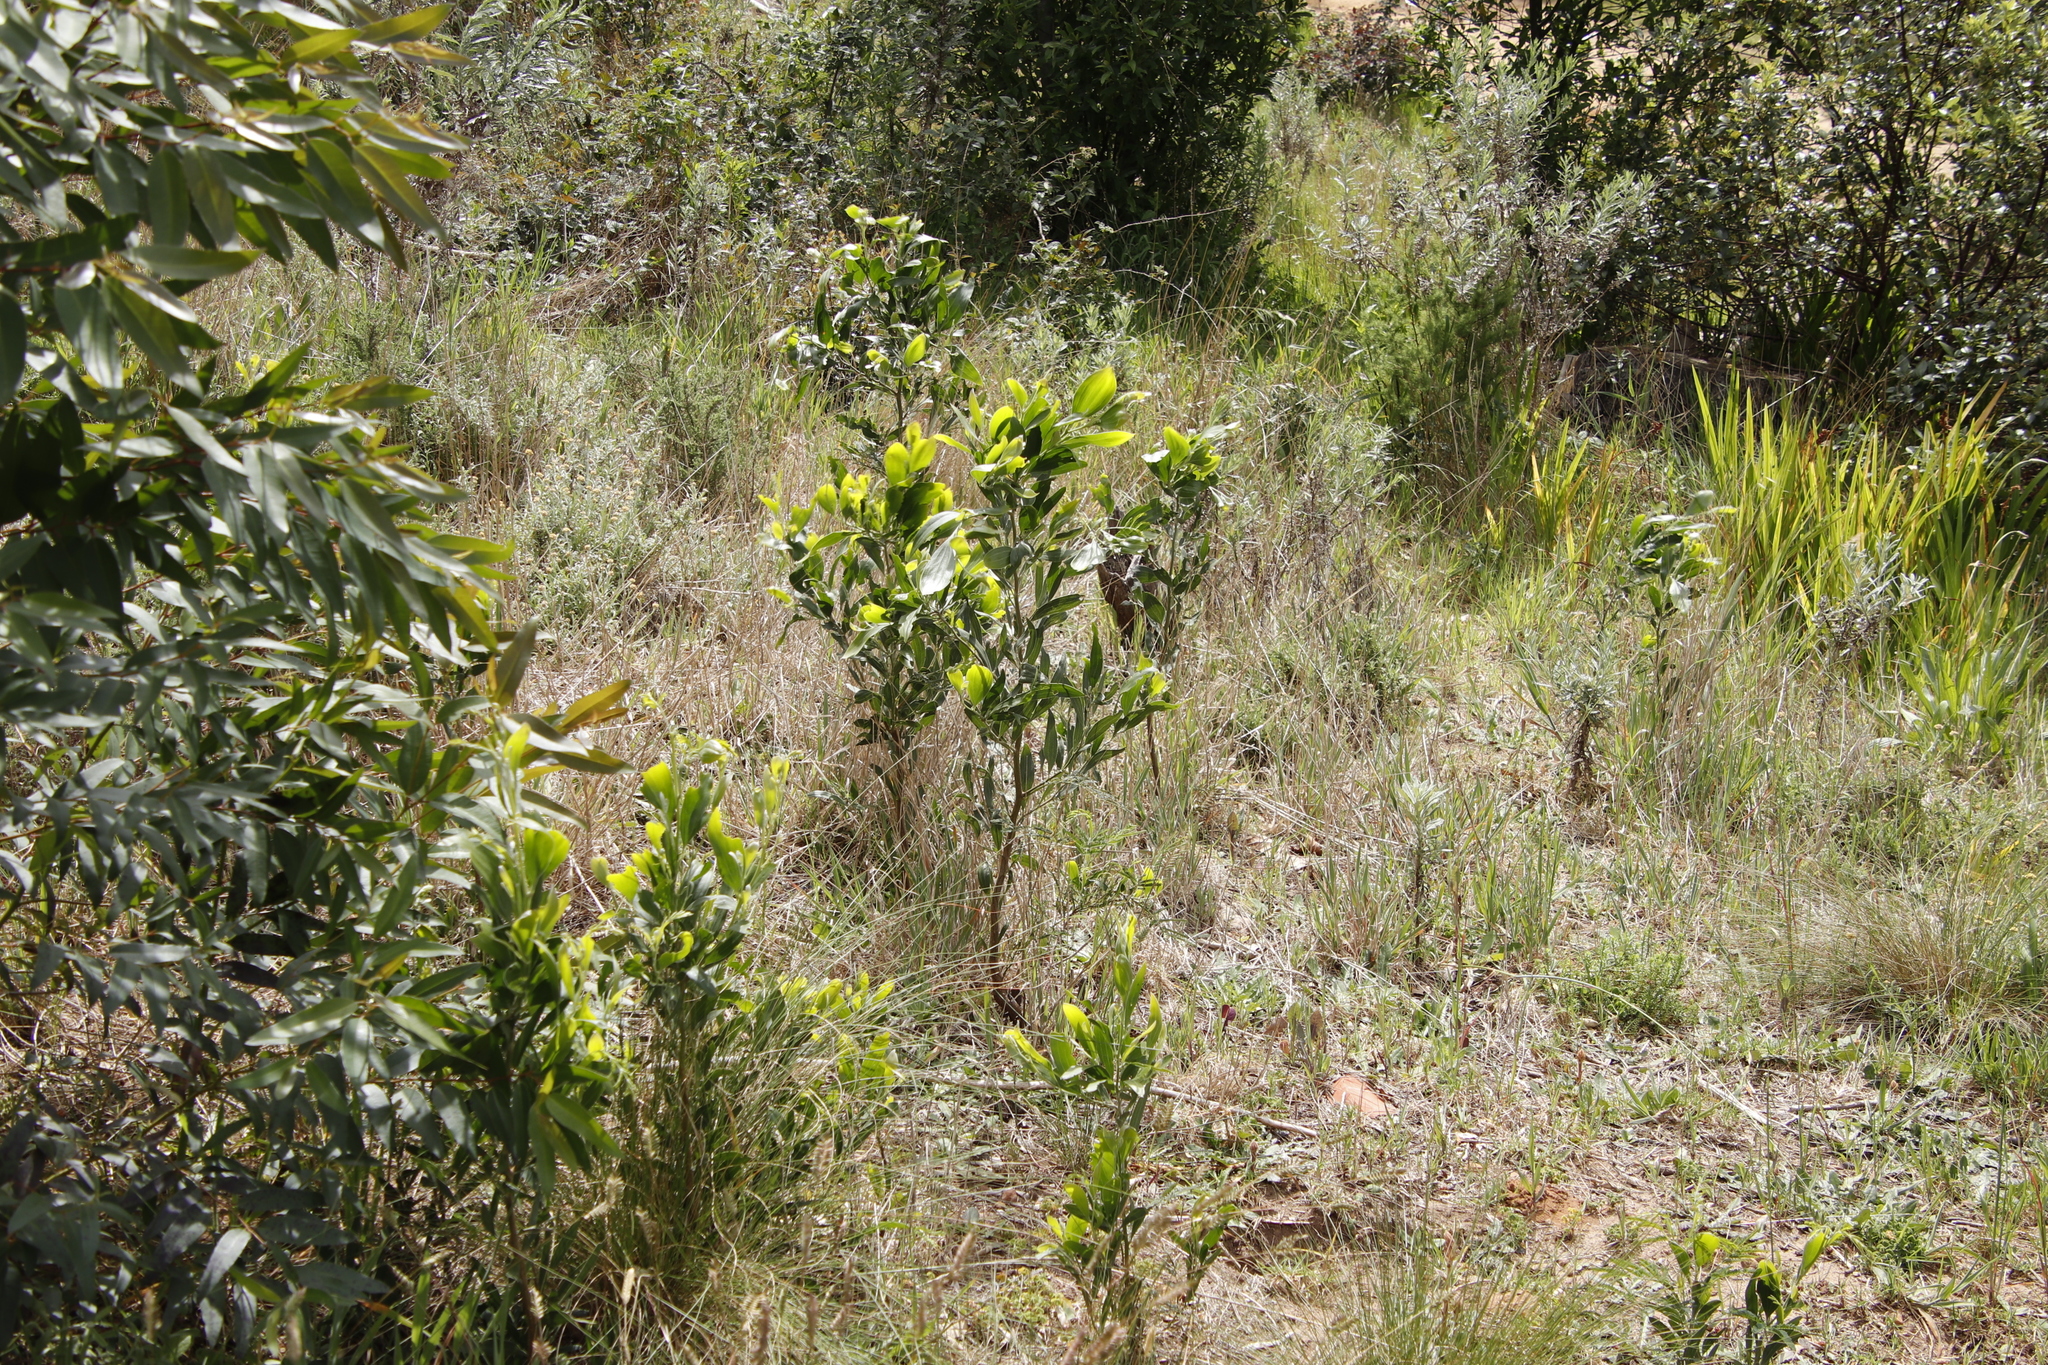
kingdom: Plantae
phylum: Tracheophyta
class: Magnoliopsida
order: Fabales
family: Fabaceae
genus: Acacia
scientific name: Acacia melanoxylon
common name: Blackwood
